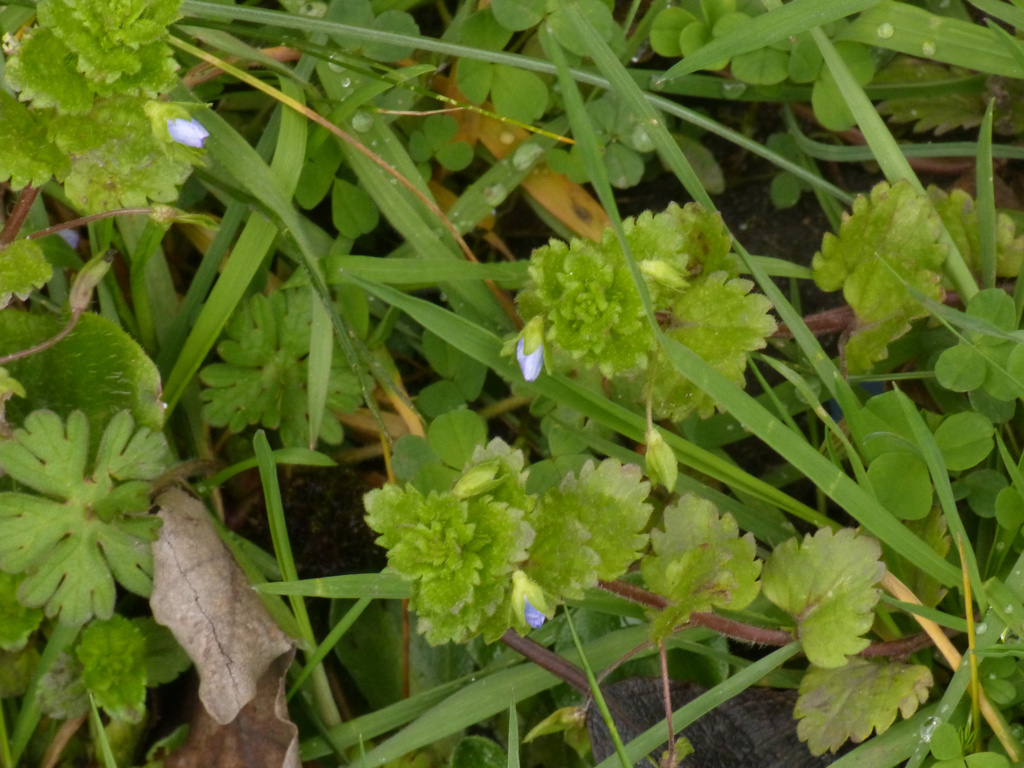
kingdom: Plantae
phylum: Tracheophyta
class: Magnoliopsida
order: Lamiales
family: Plantaginaceae
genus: Veronica
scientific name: Veronica persica
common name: Common field-speedwell
